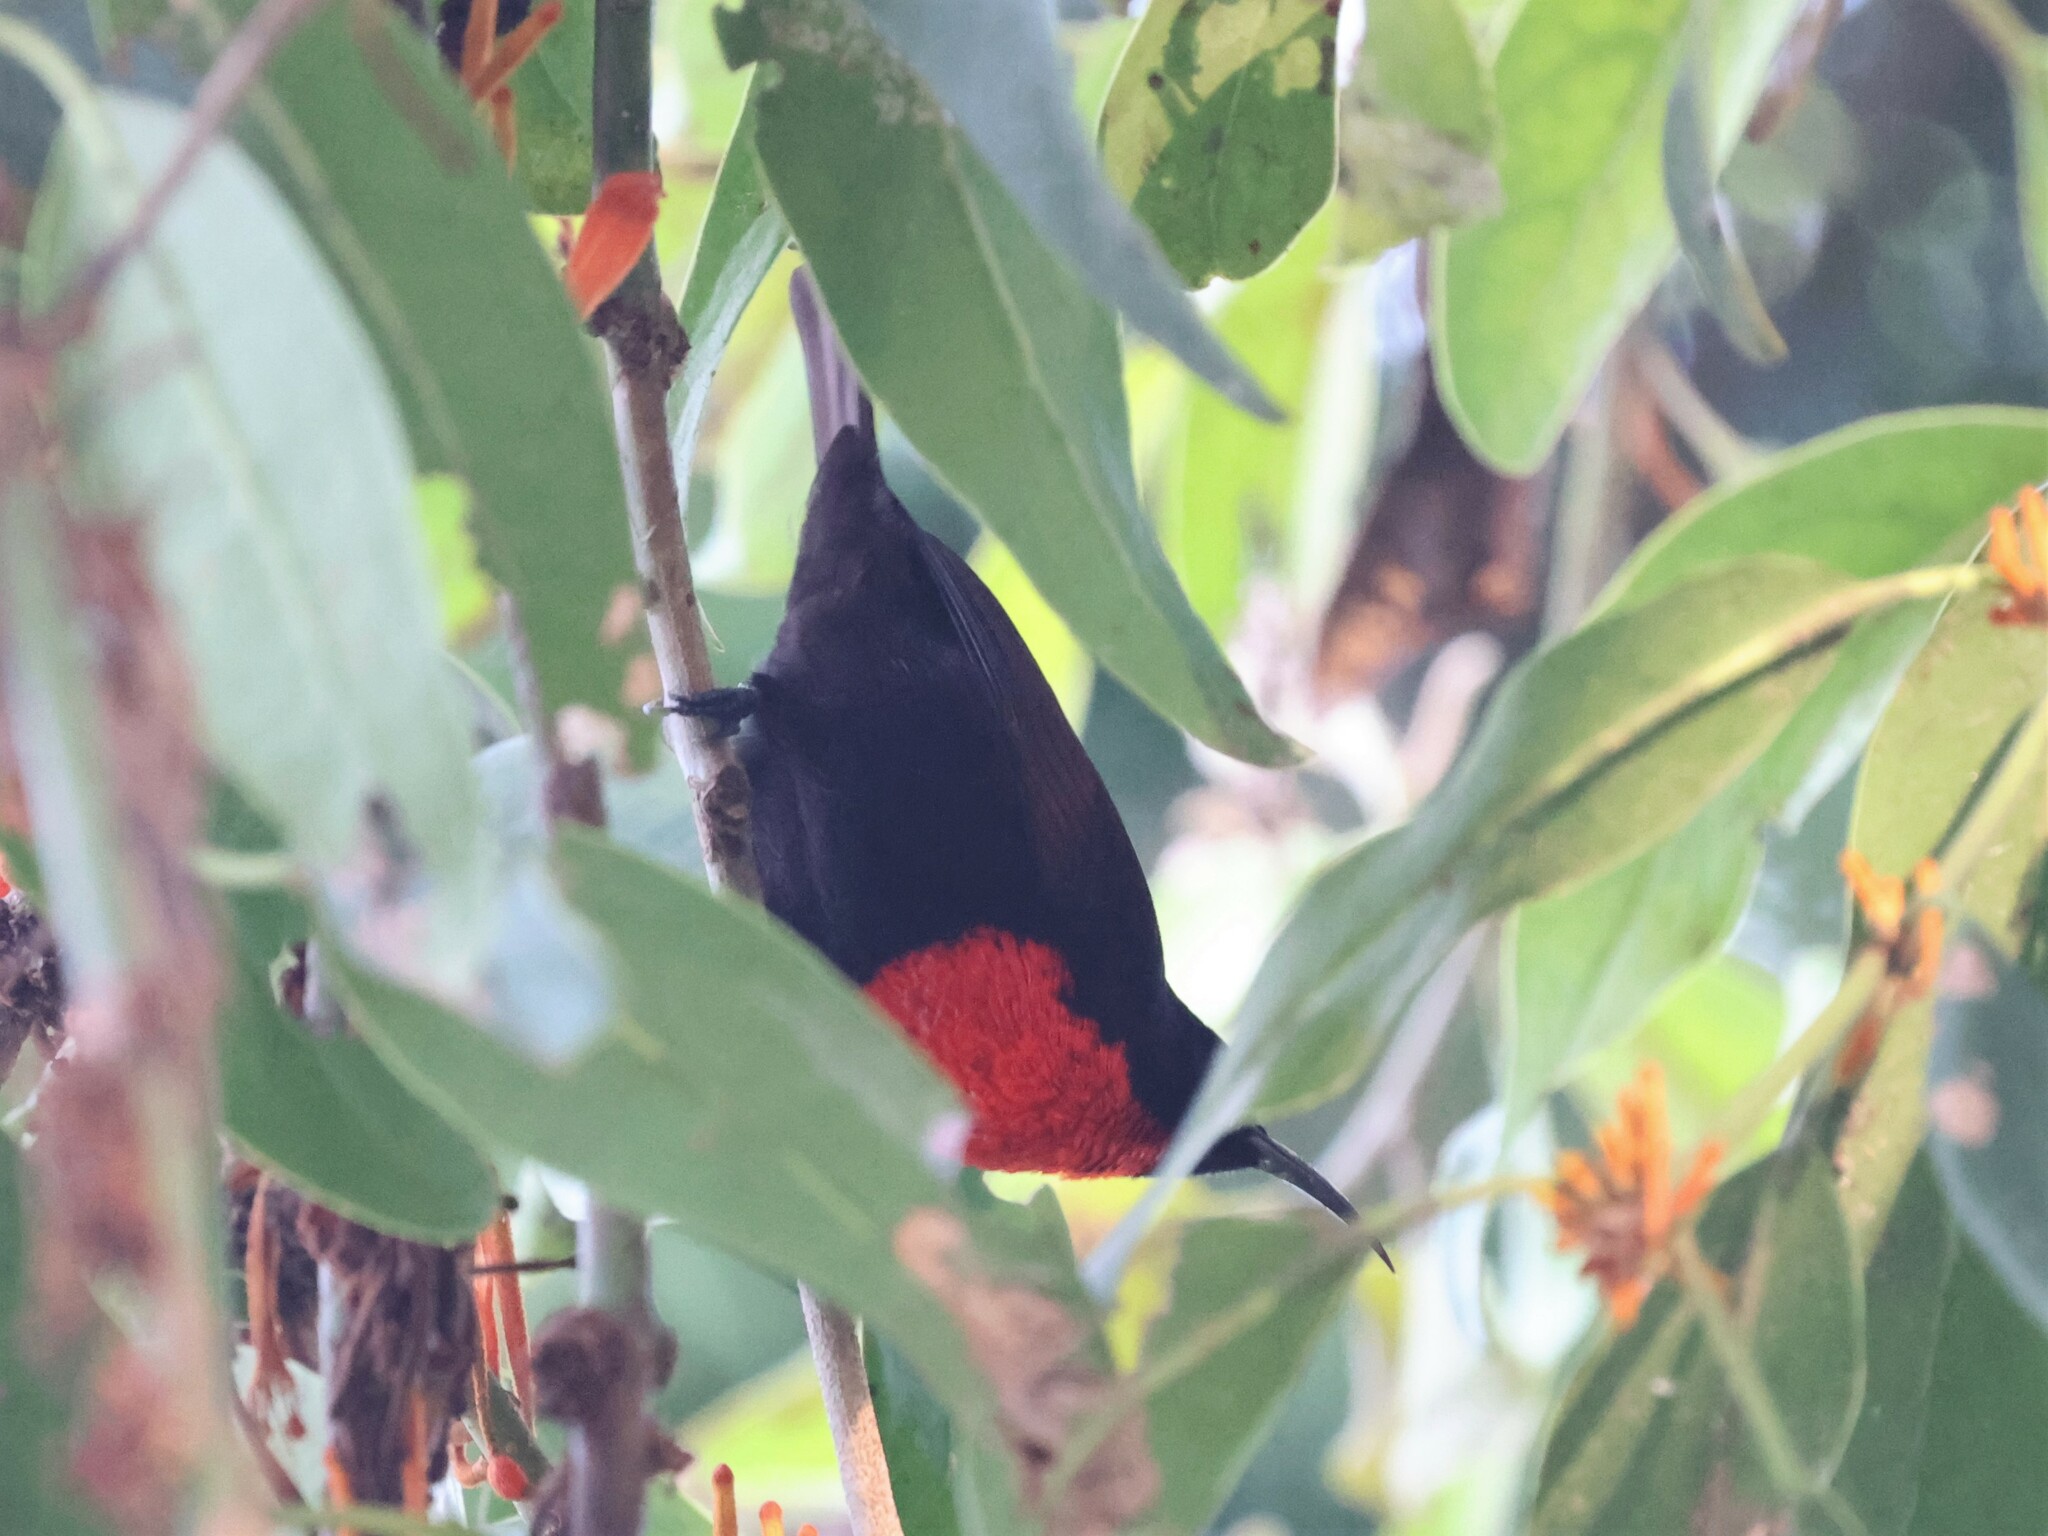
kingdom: Animalia
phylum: Chordata
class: Aves
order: Passeriformes
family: Nectariniidae
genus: Chalcomitra
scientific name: Chalcomitra senegalensis
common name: Scarlet-chested sunbird
